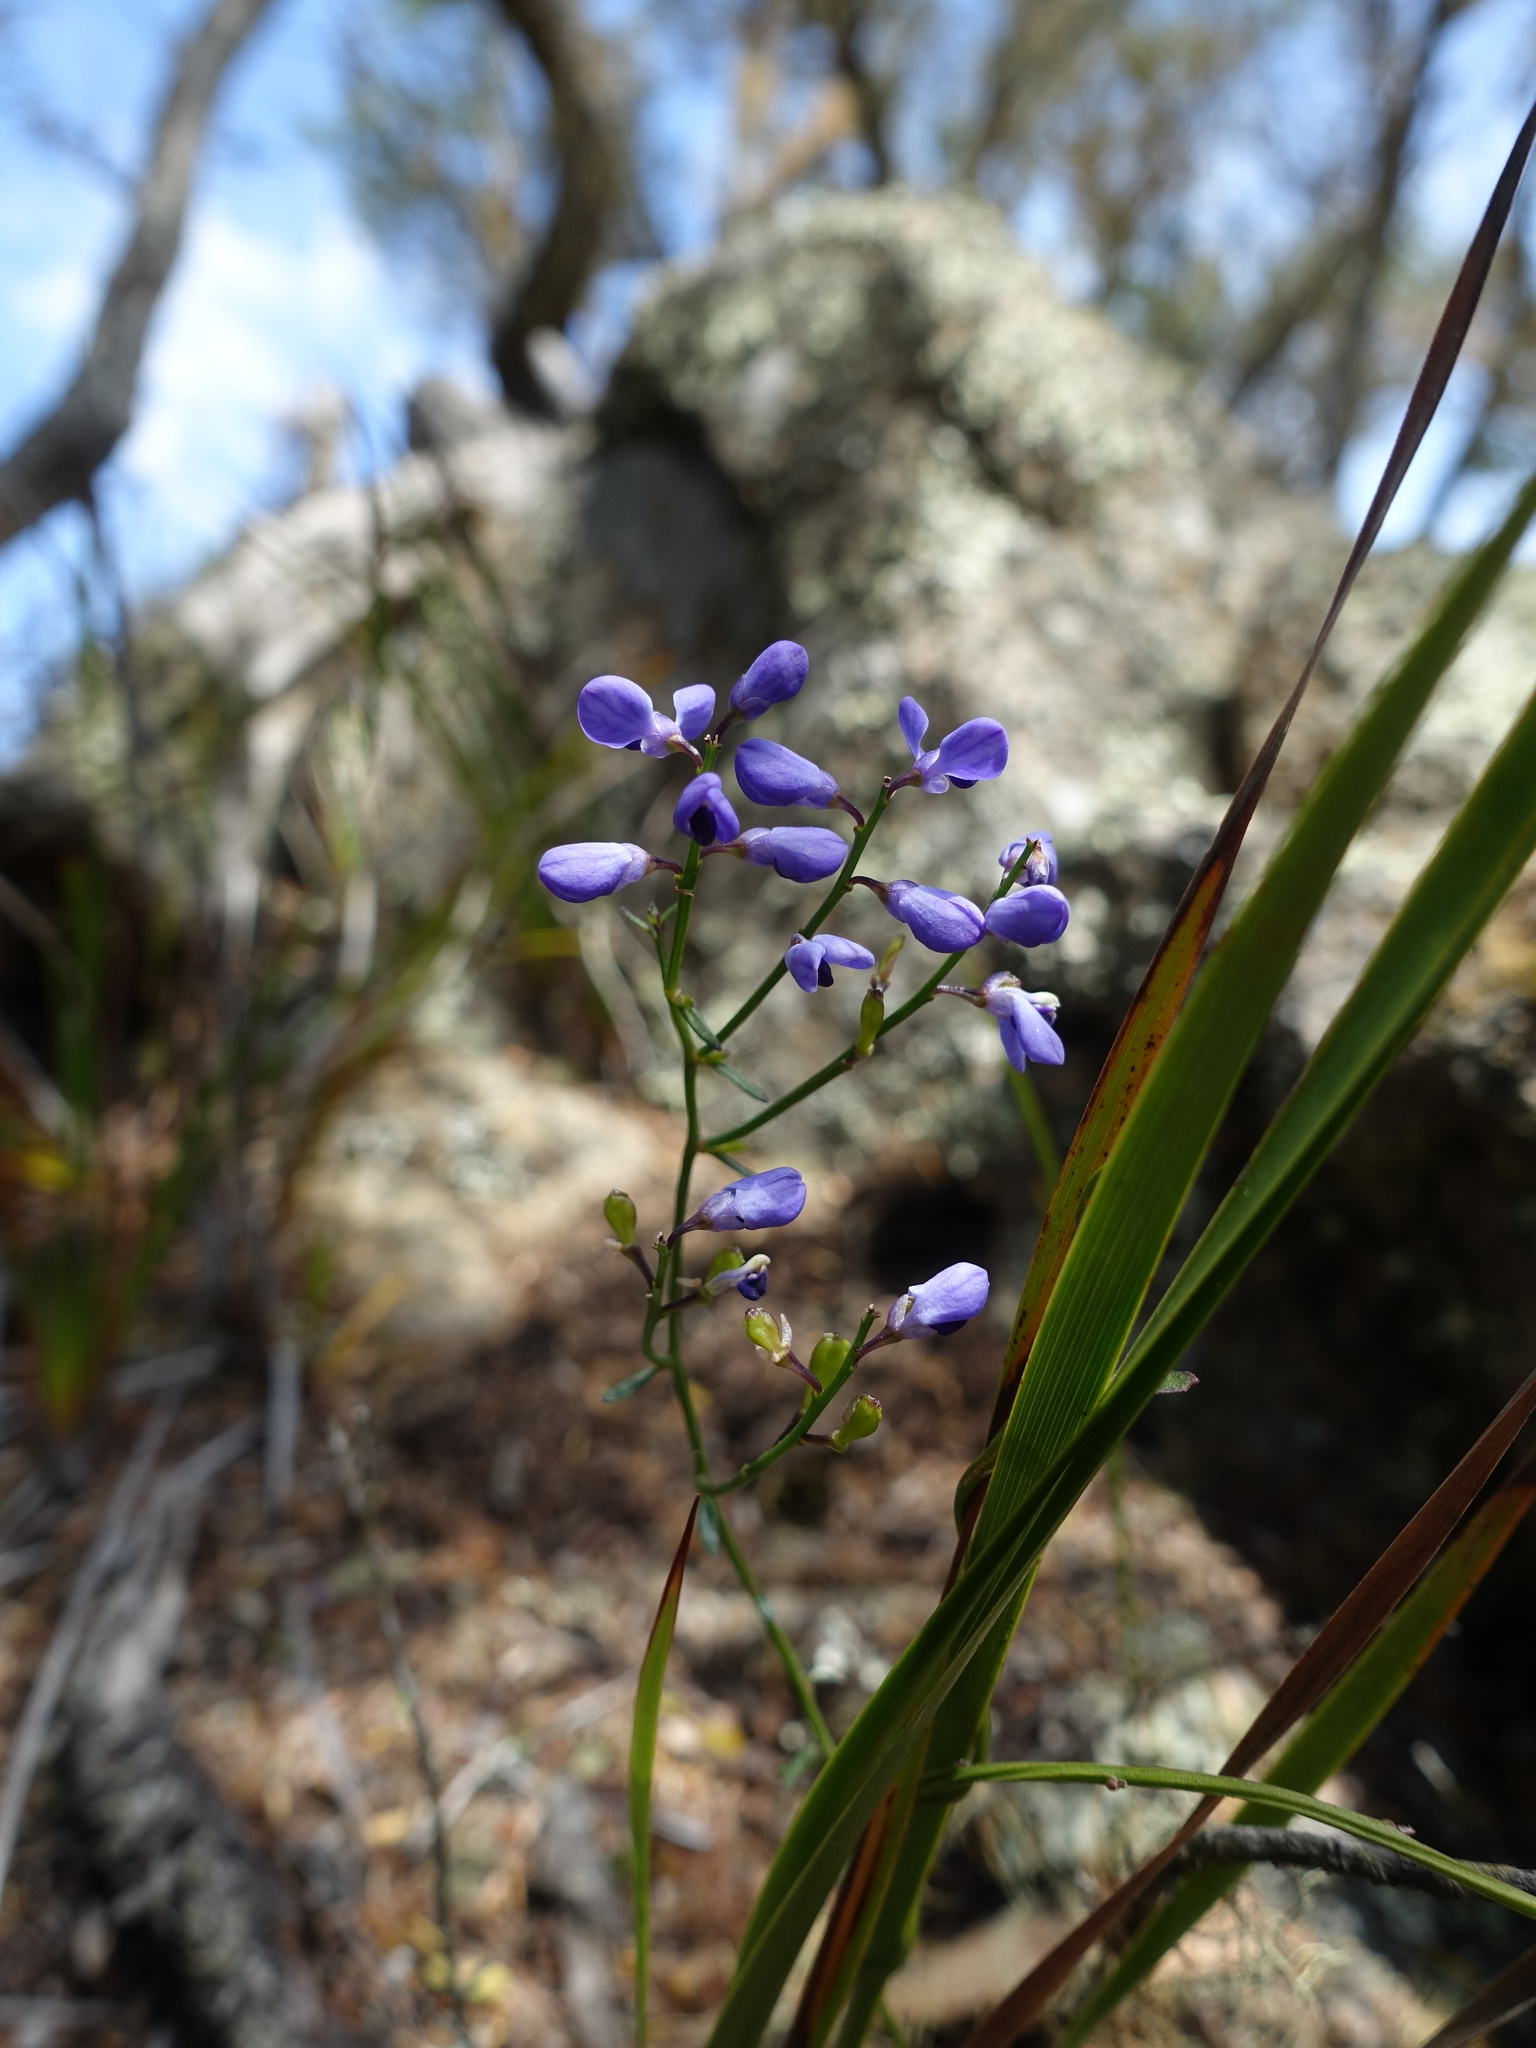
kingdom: Plantae
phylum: Tracheophyta
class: Magnoliopsida
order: Fabales
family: Polygalaceae
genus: Comesperma
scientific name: Comesperma volubile
